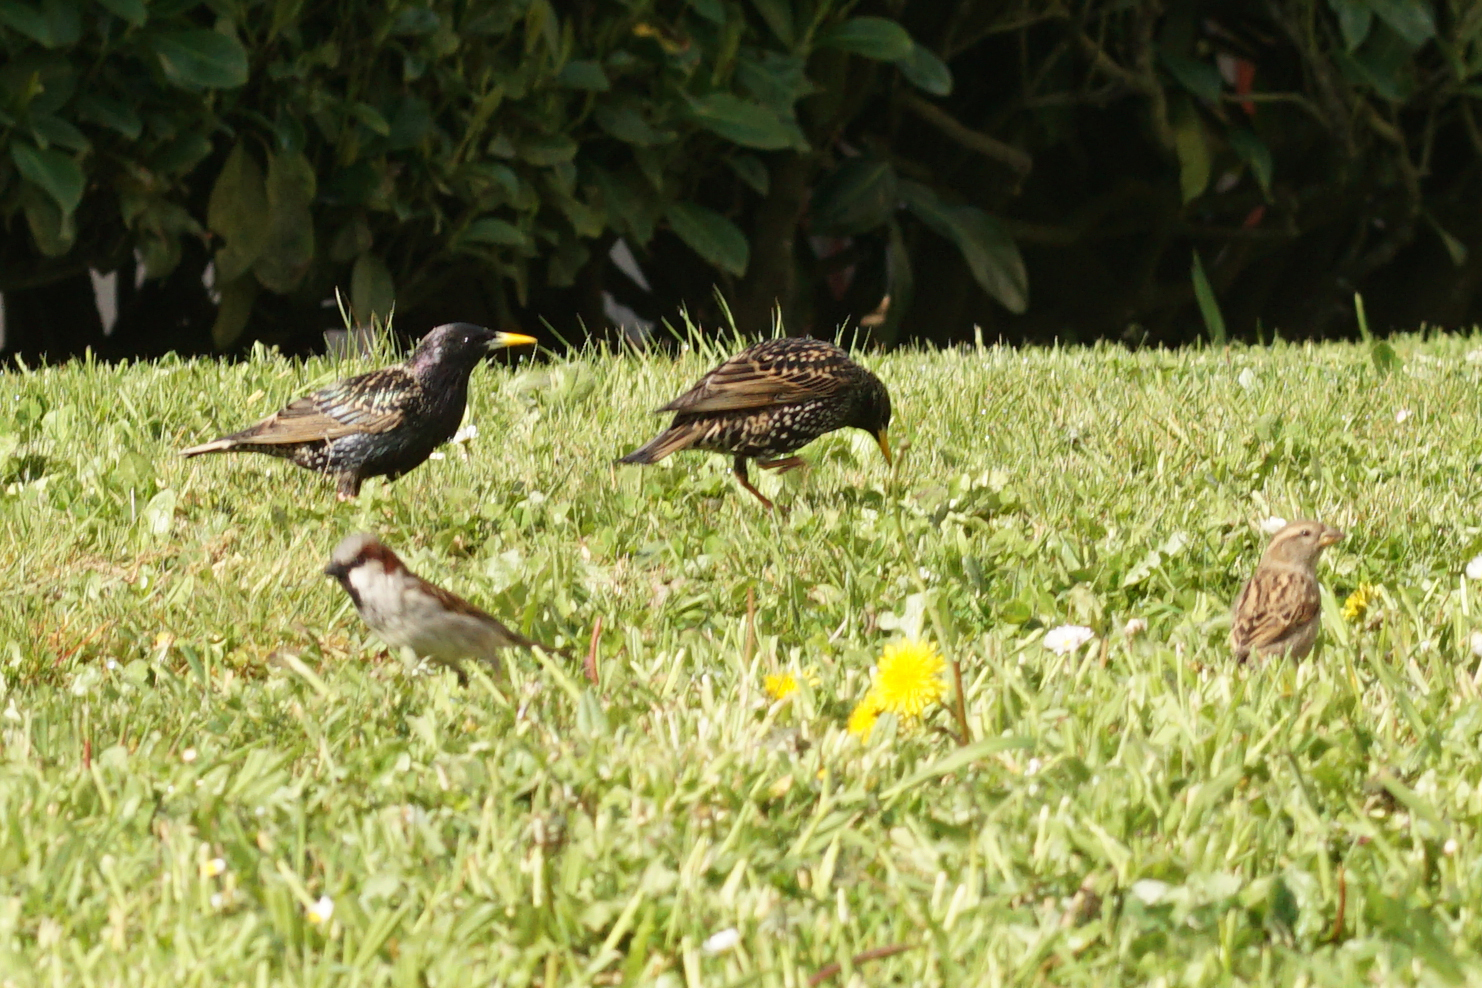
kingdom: Animalia
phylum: Chordata
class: Aves
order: Passeriformes
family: Passeridae
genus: Passer
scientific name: Passer domesticus
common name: House sparrow
